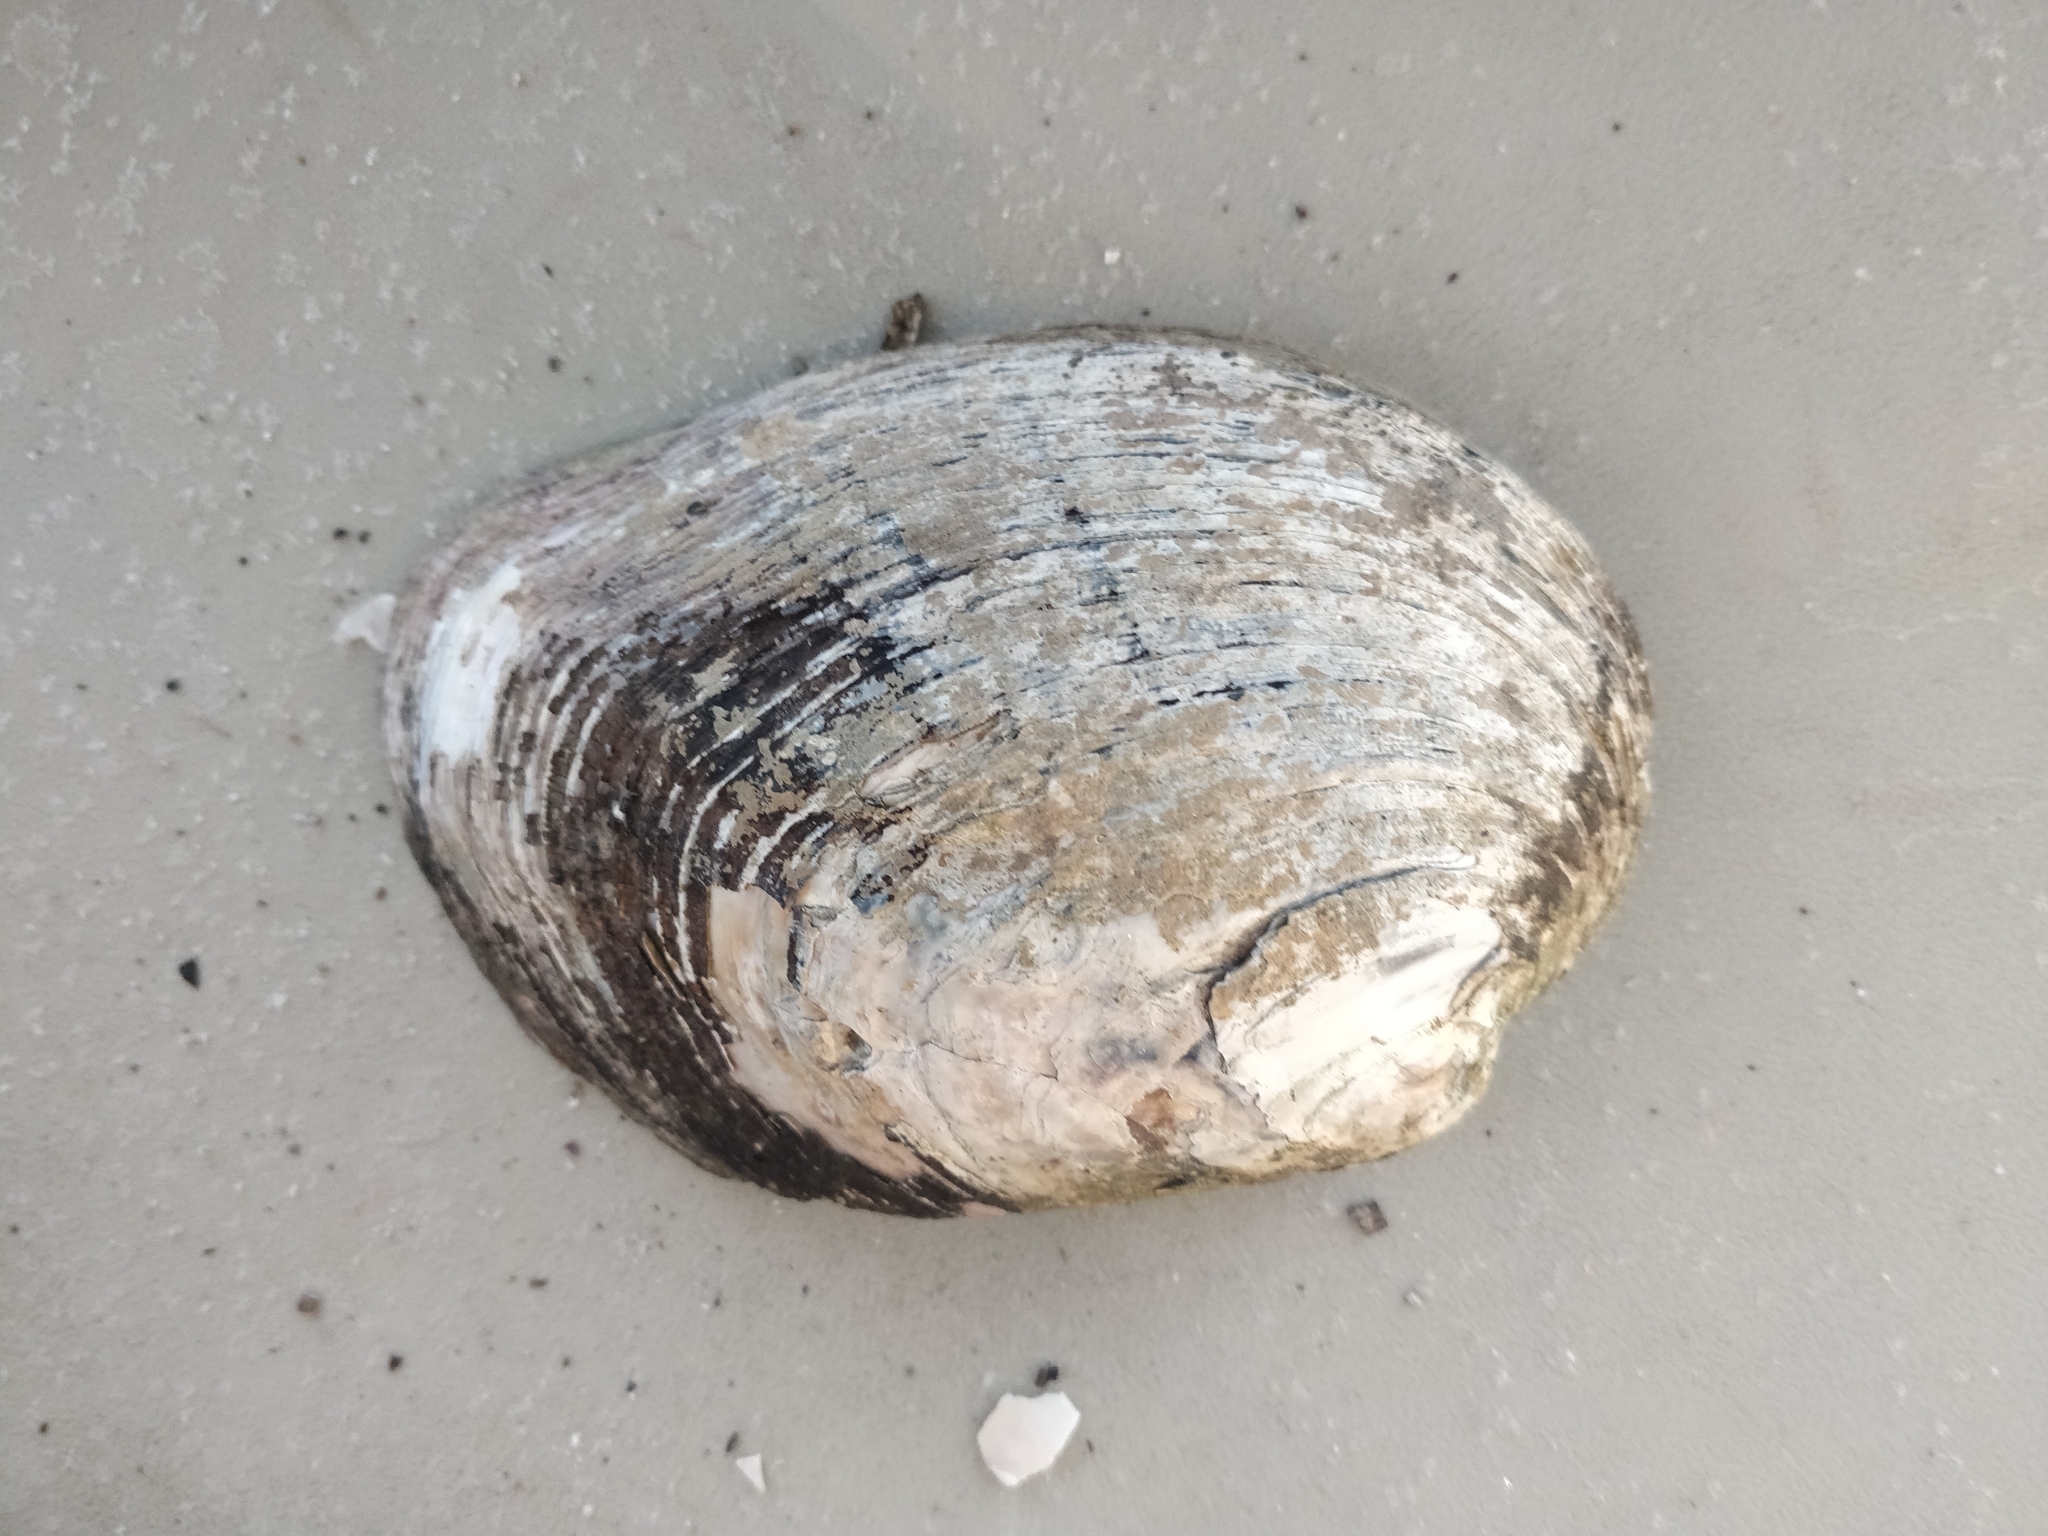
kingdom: Animalia
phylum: Mollusca
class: Bivalvia
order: Unionida
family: Unionidae
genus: Amblema
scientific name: Amblema plicata
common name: Threeridge
